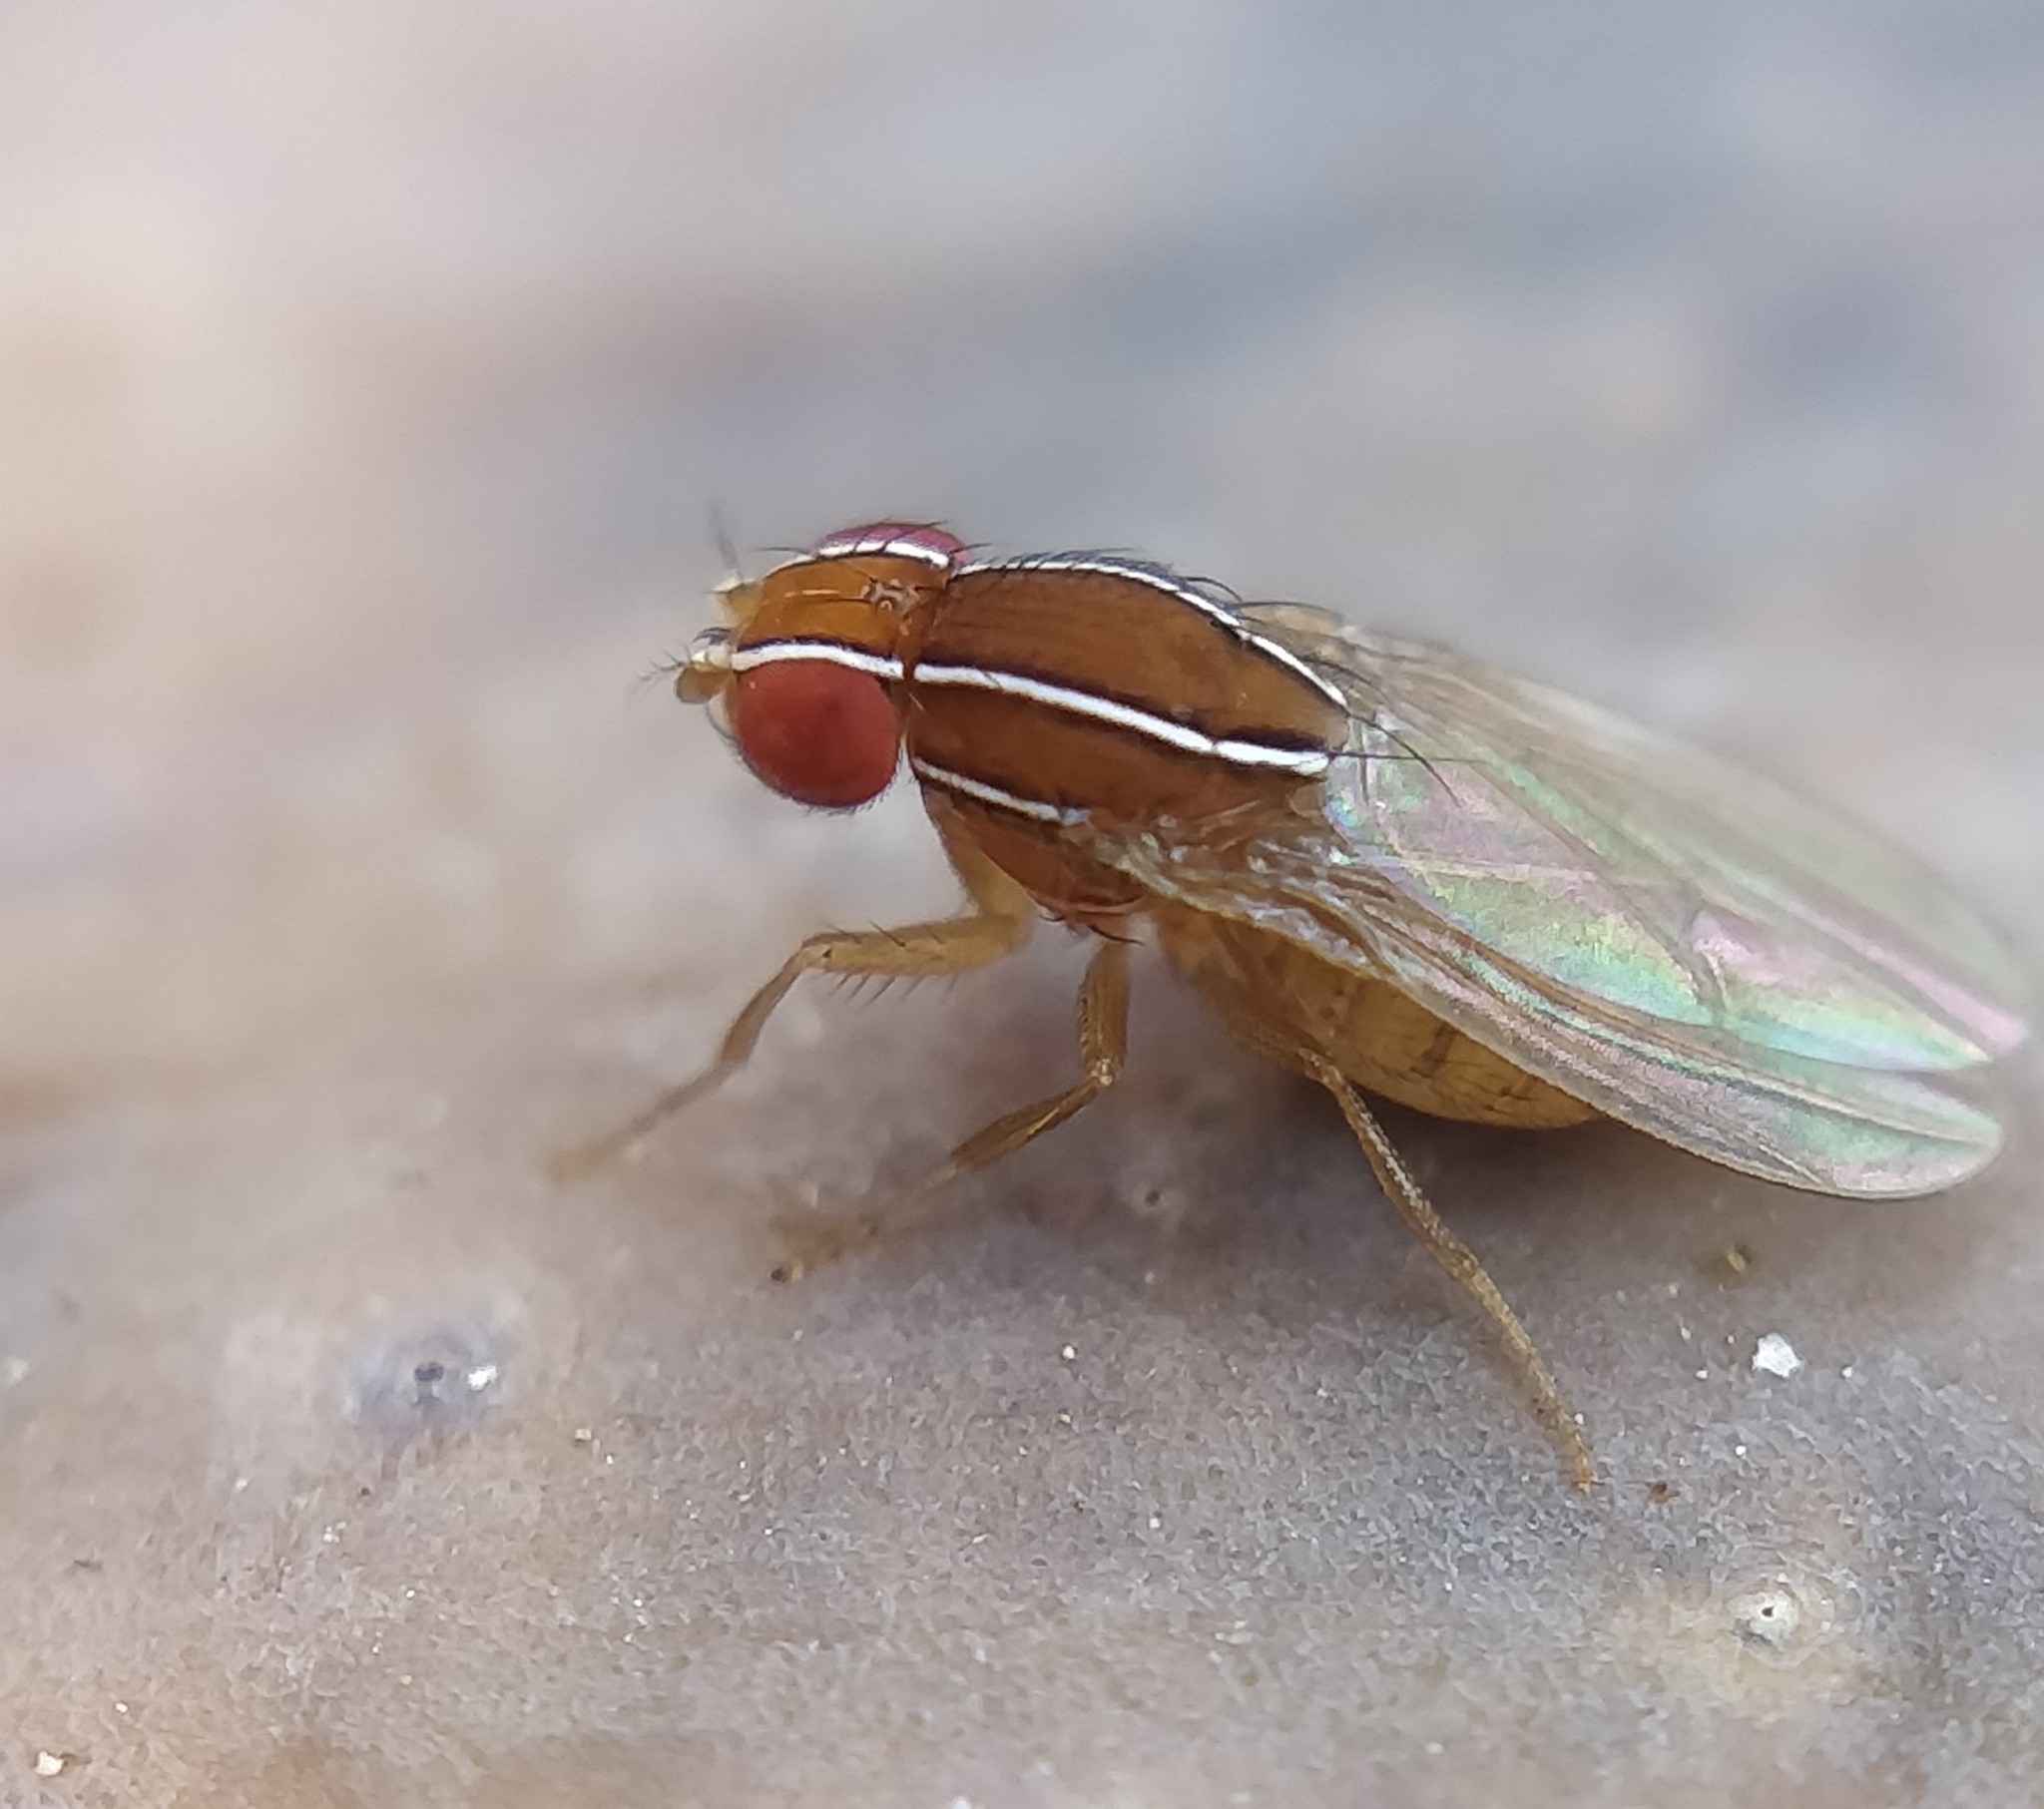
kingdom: Animalia
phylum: Arthropoda
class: Insecta
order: Diptera
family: Drosophilidae
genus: Zaprionus
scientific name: Zaprionus indianus
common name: African fig fly
